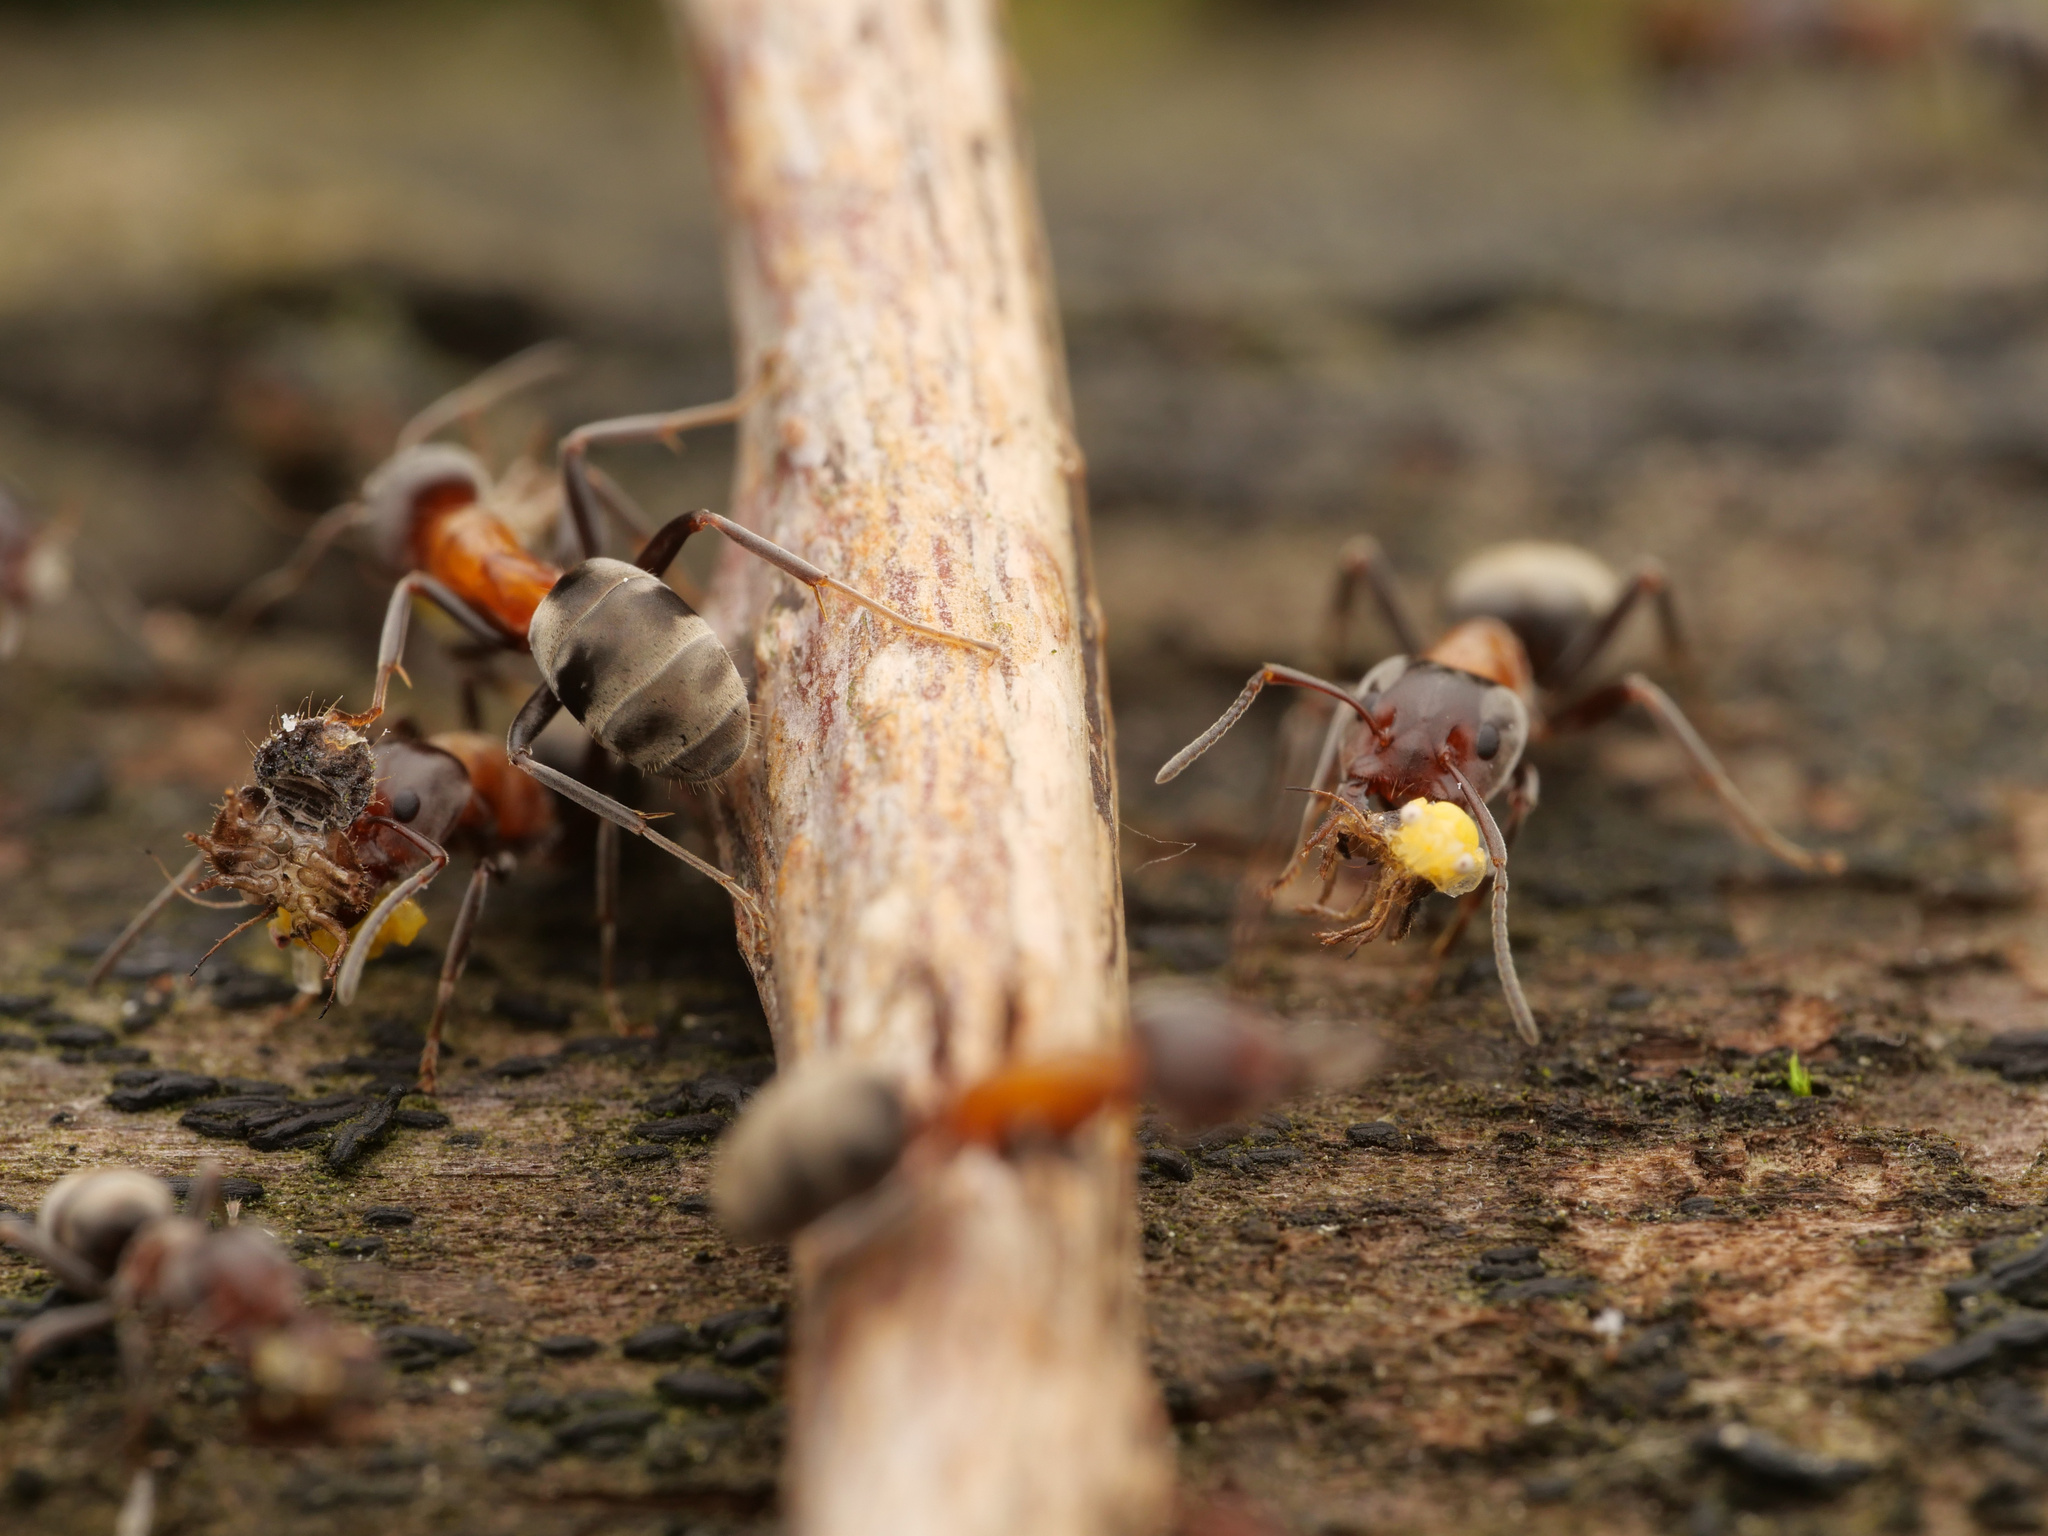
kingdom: Animalia
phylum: Arthropoda
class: Insecta
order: Hymenoptera
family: Formicidae
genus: Liometopum
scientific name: Liometopum microcephalum
